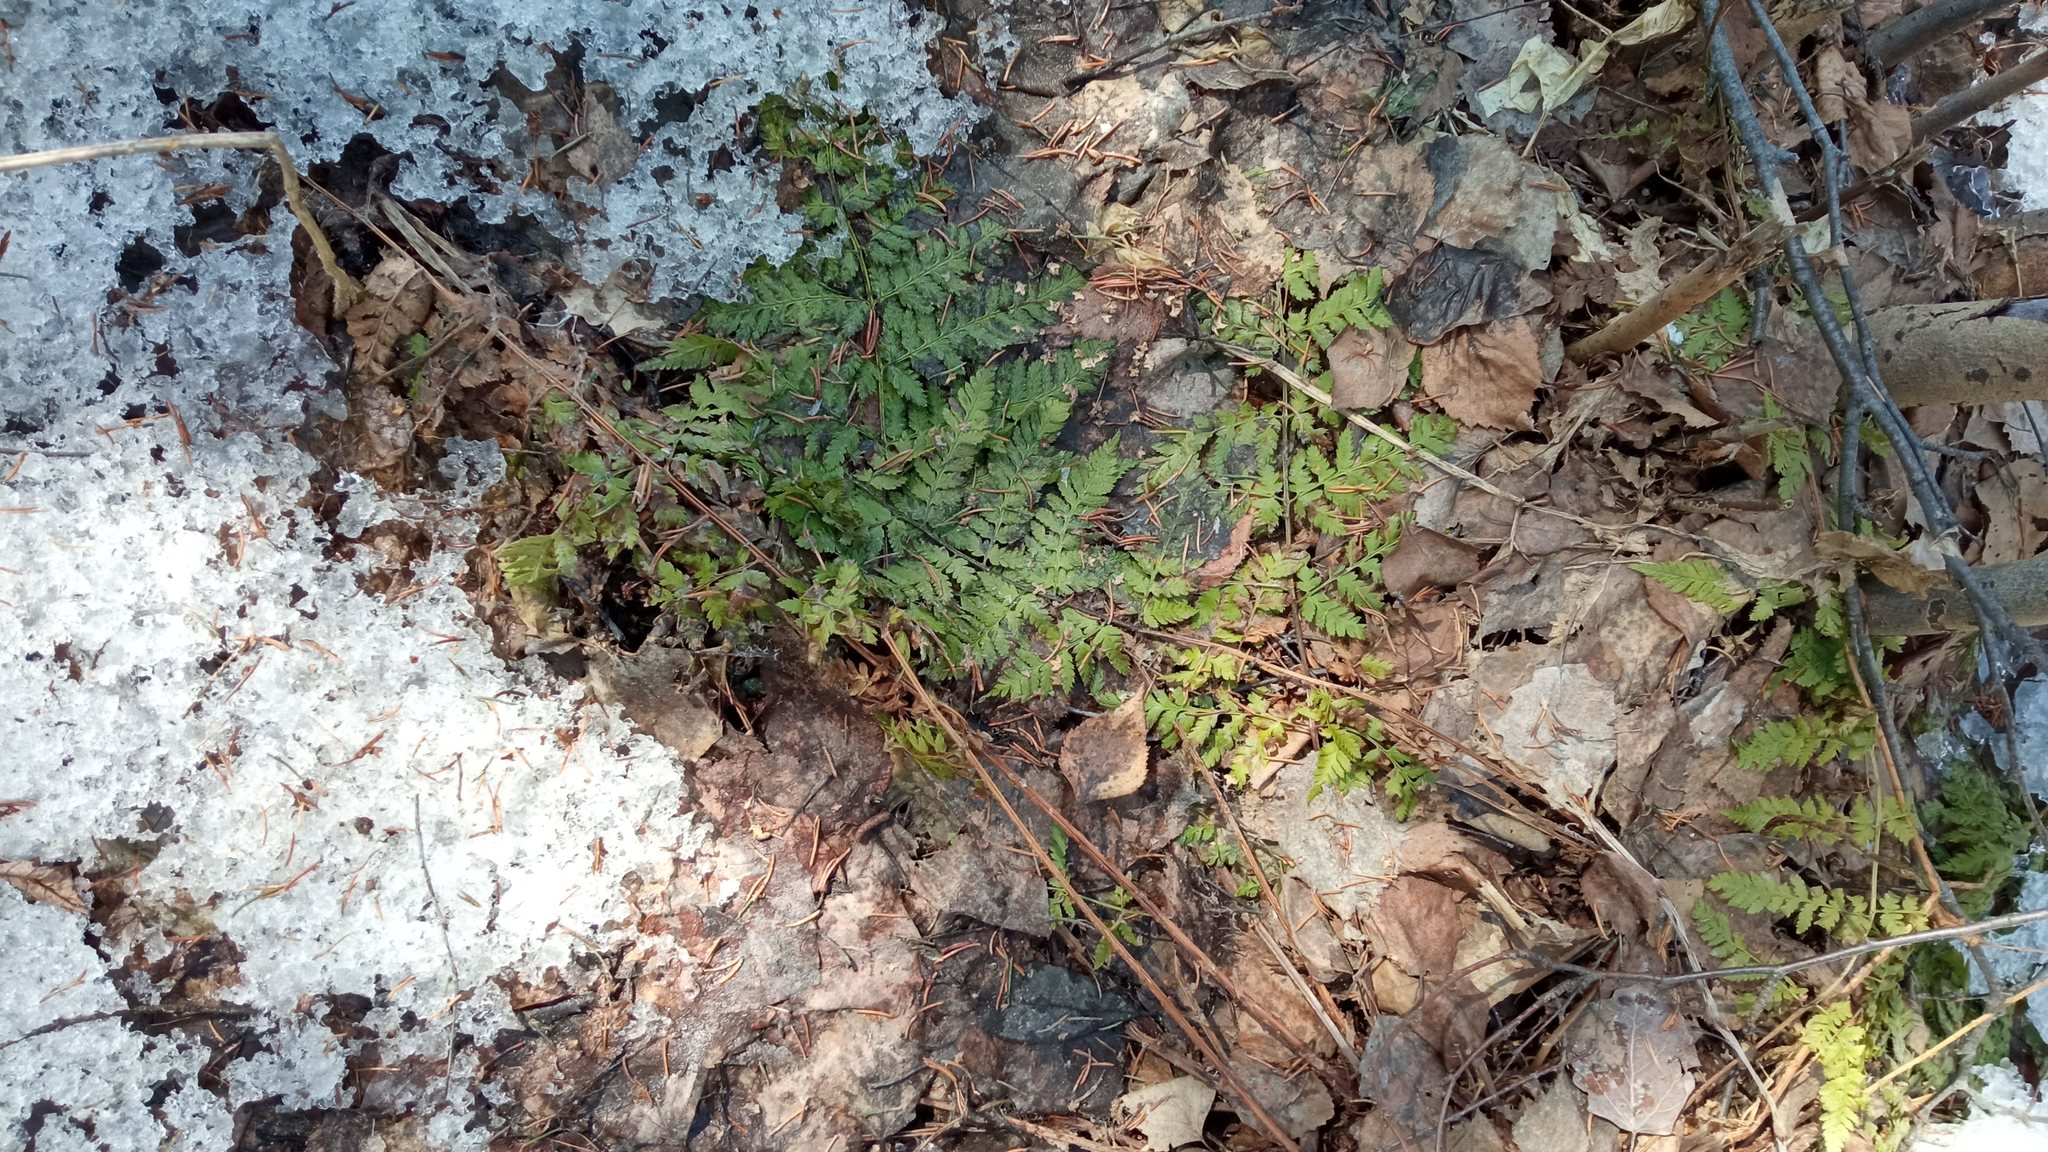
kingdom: Plantae
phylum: Tracheophyta
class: Polypodiopsida
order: Polypodiales
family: Dryopteridaceae
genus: Dryopteris
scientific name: Dryopteris carthusiana
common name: Narrow buckler-fern
